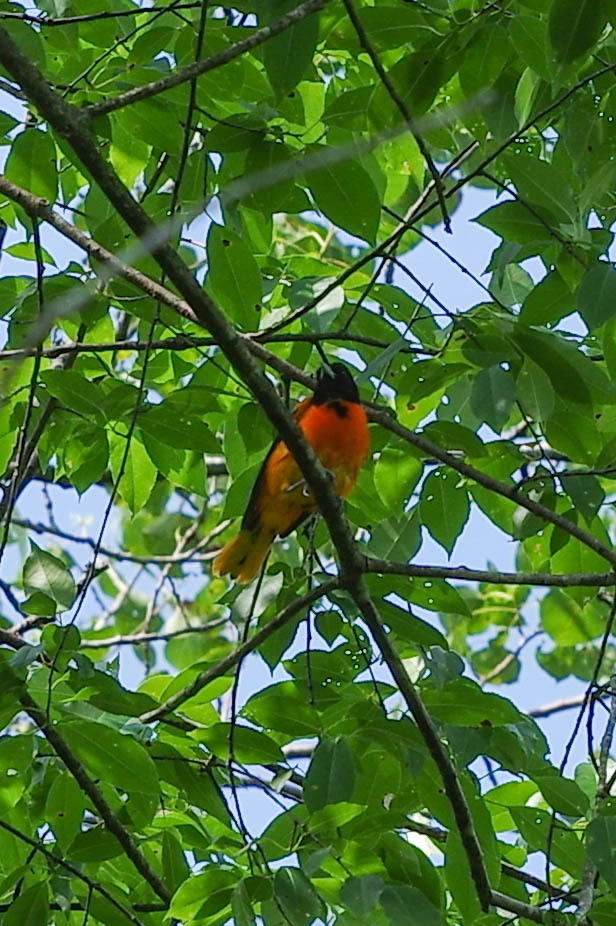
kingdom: Animalia
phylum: Chordata
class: Aves
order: Passeriformes
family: Icteridae
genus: Icterus
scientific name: Icterus galbula
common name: Baltimore oriole
